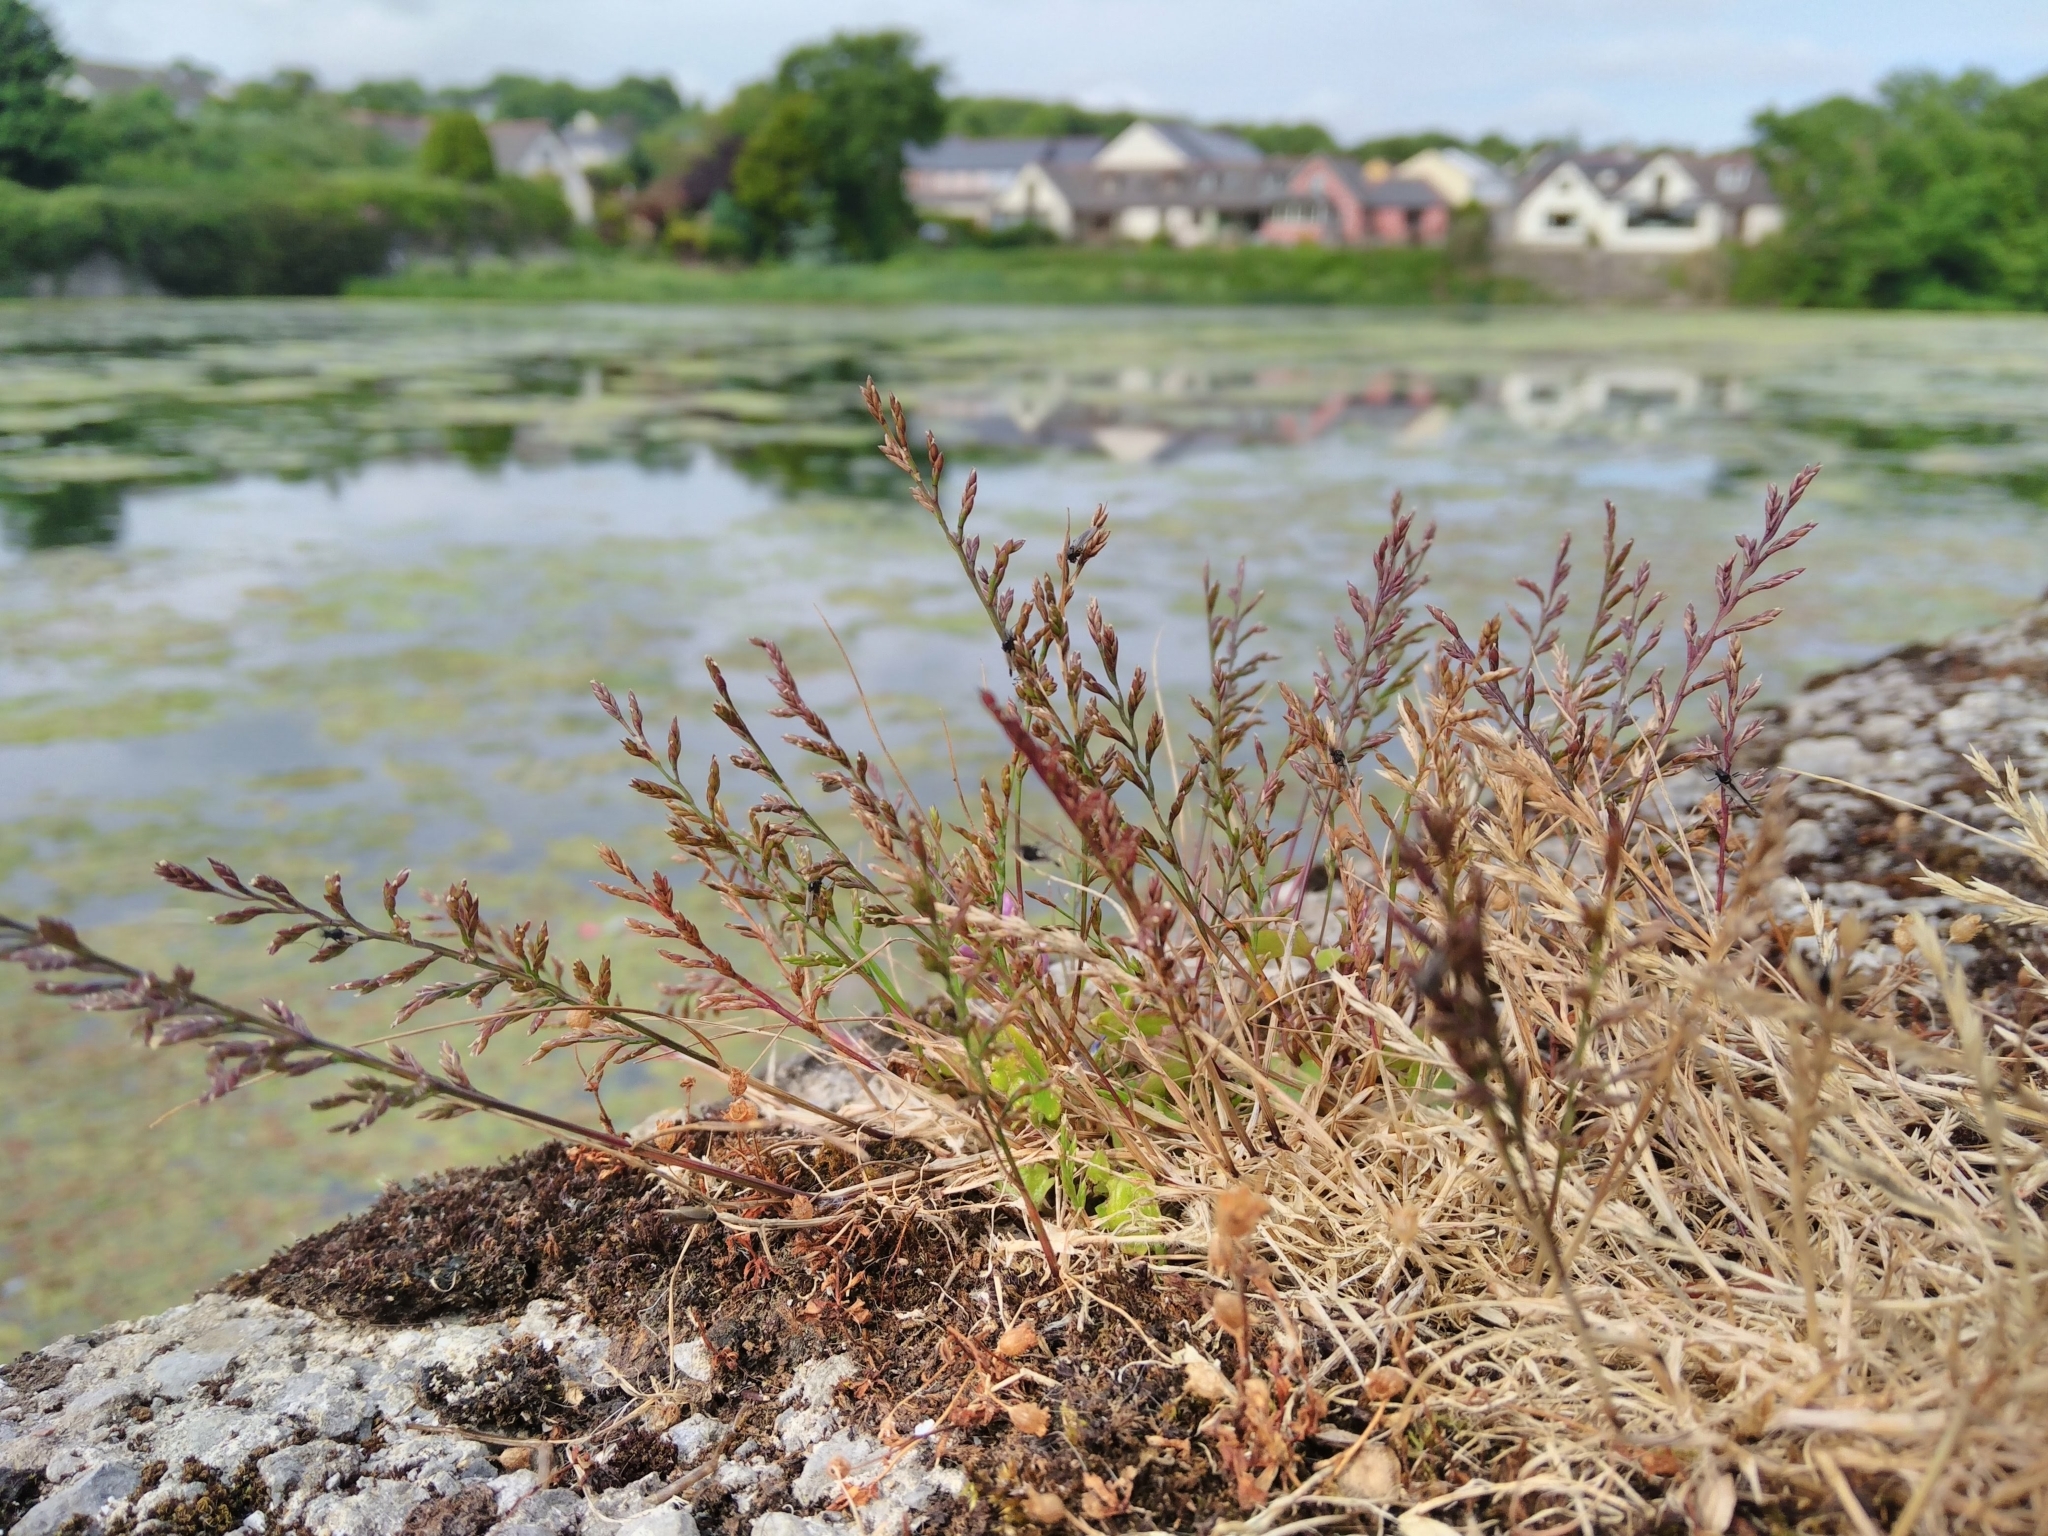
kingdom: Plantae
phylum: Tracheophyta
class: Liliopsida
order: Poales
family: Poaceae
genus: Catapodium
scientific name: Catapodium rigidum
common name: Fern-grass
